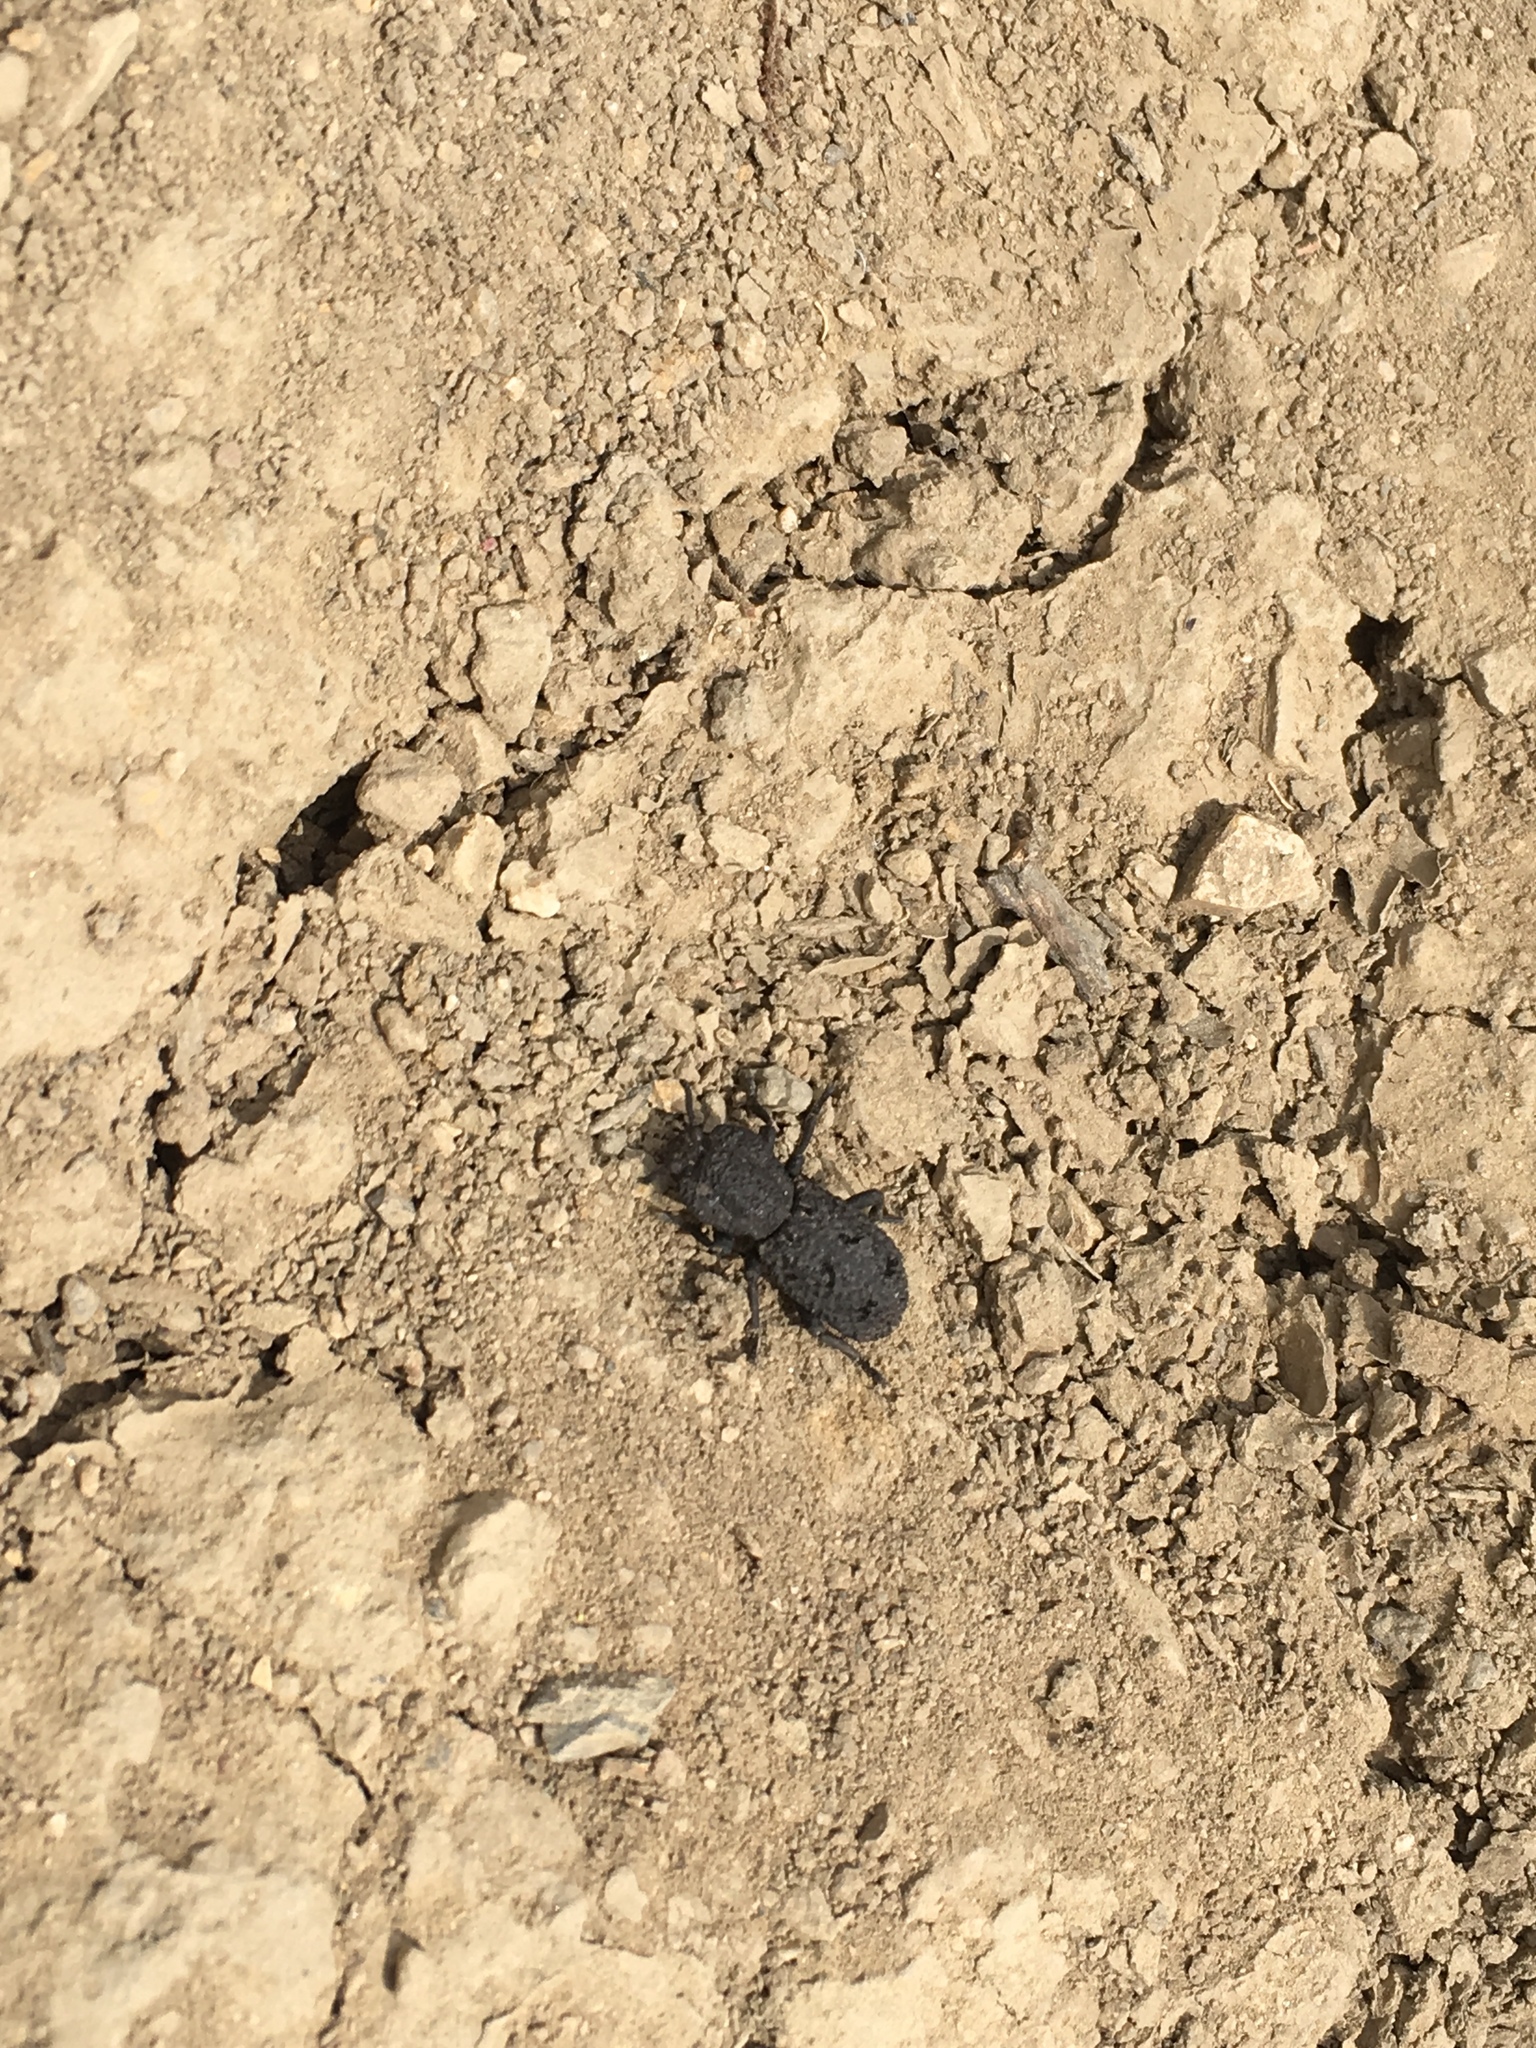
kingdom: Animalia
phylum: Arthropoda
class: Insecta
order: Coleoptera
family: Zopheridae
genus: Phloeodes
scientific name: Phloeodes diabolicus
